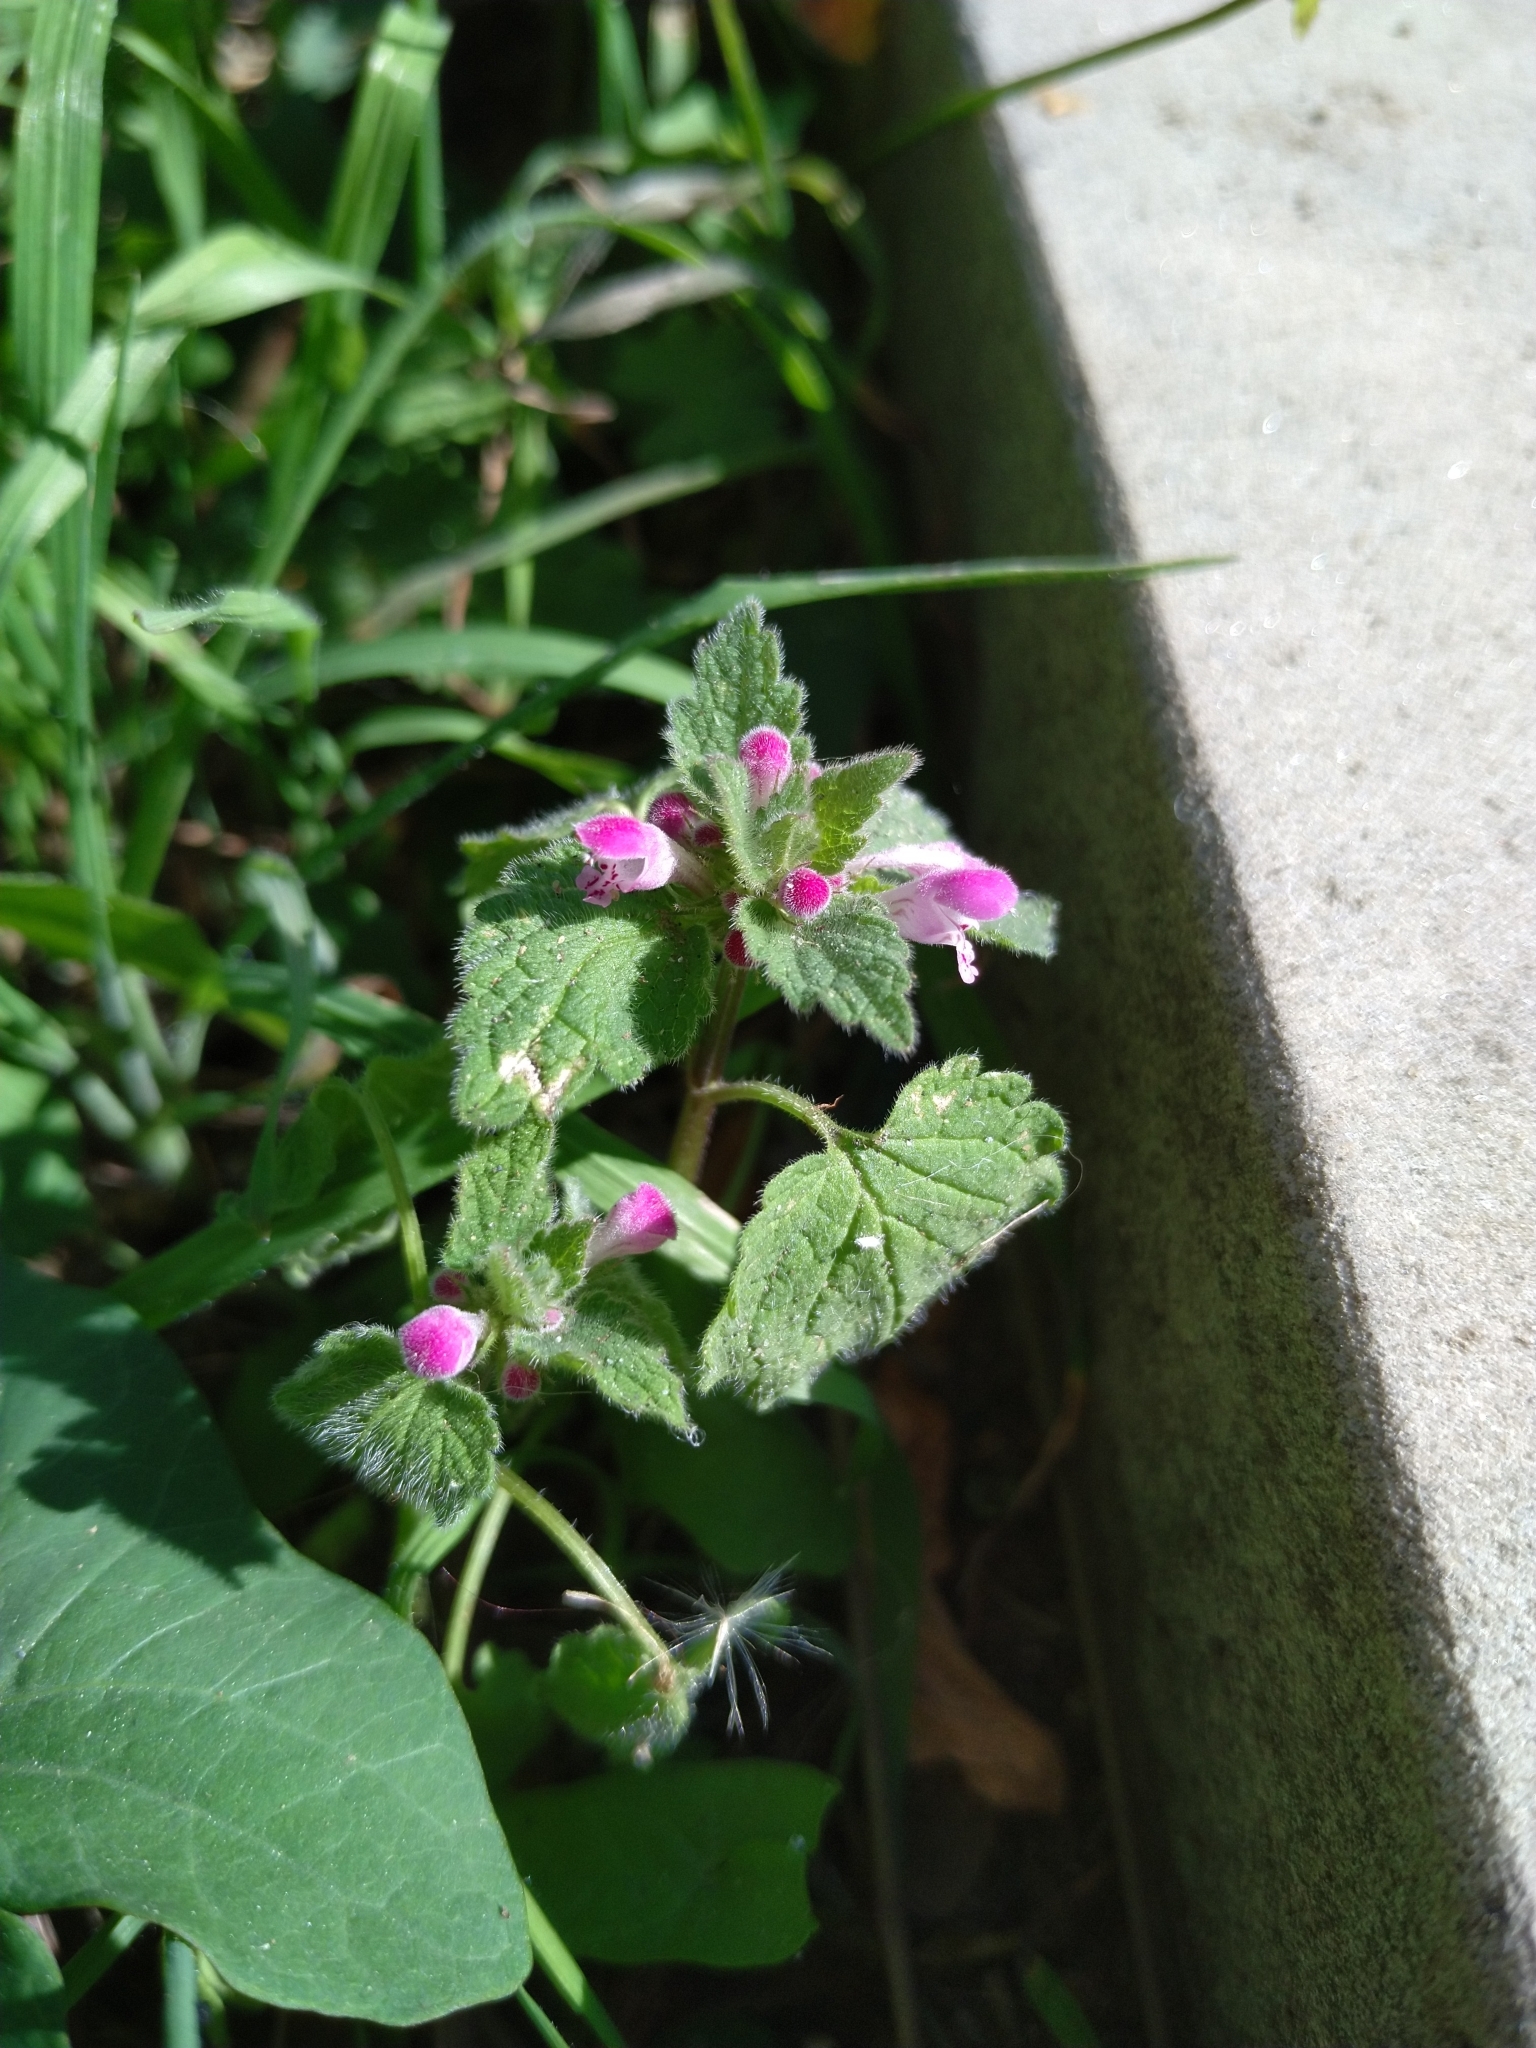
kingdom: Plantae
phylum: Tracheophyta
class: Magnoliopsida
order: Lamiales
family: Lamiaceae
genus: Lamium
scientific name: Lamium purpureum
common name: Red dead-nettle
